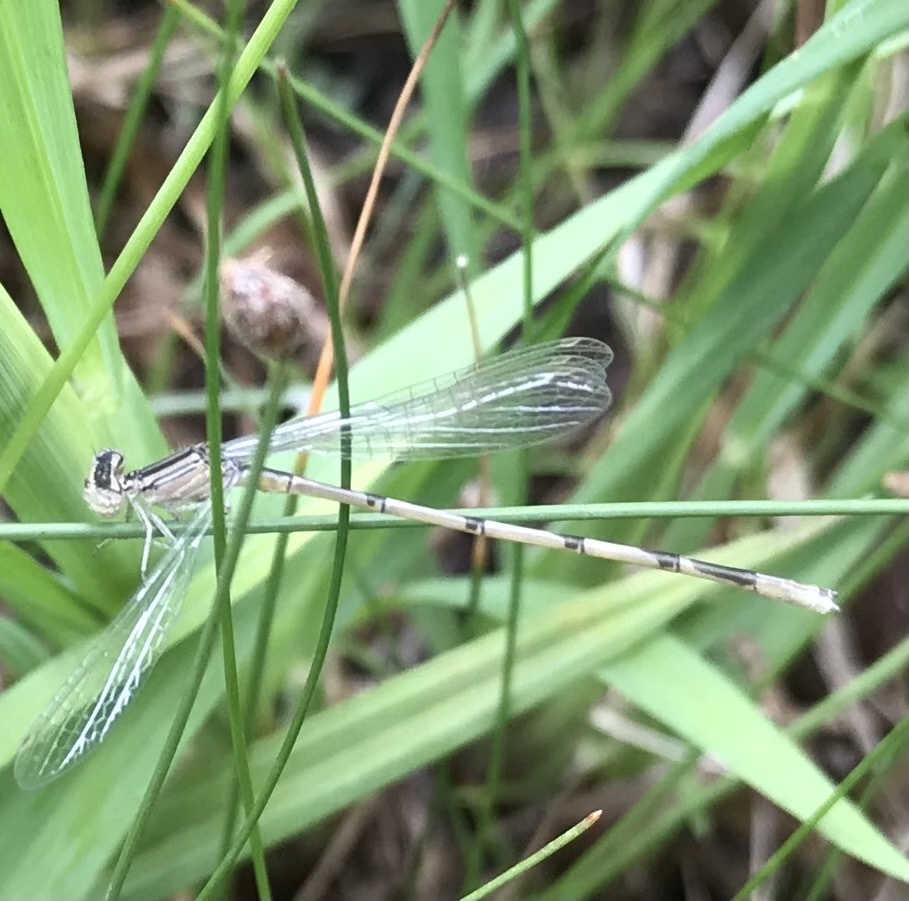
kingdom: Animalia
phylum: Arthropoda
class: Insecta
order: Odonata
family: Coenagrionidae
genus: Enallagma
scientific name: Enallagma basidens
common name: Double-striped bluet
